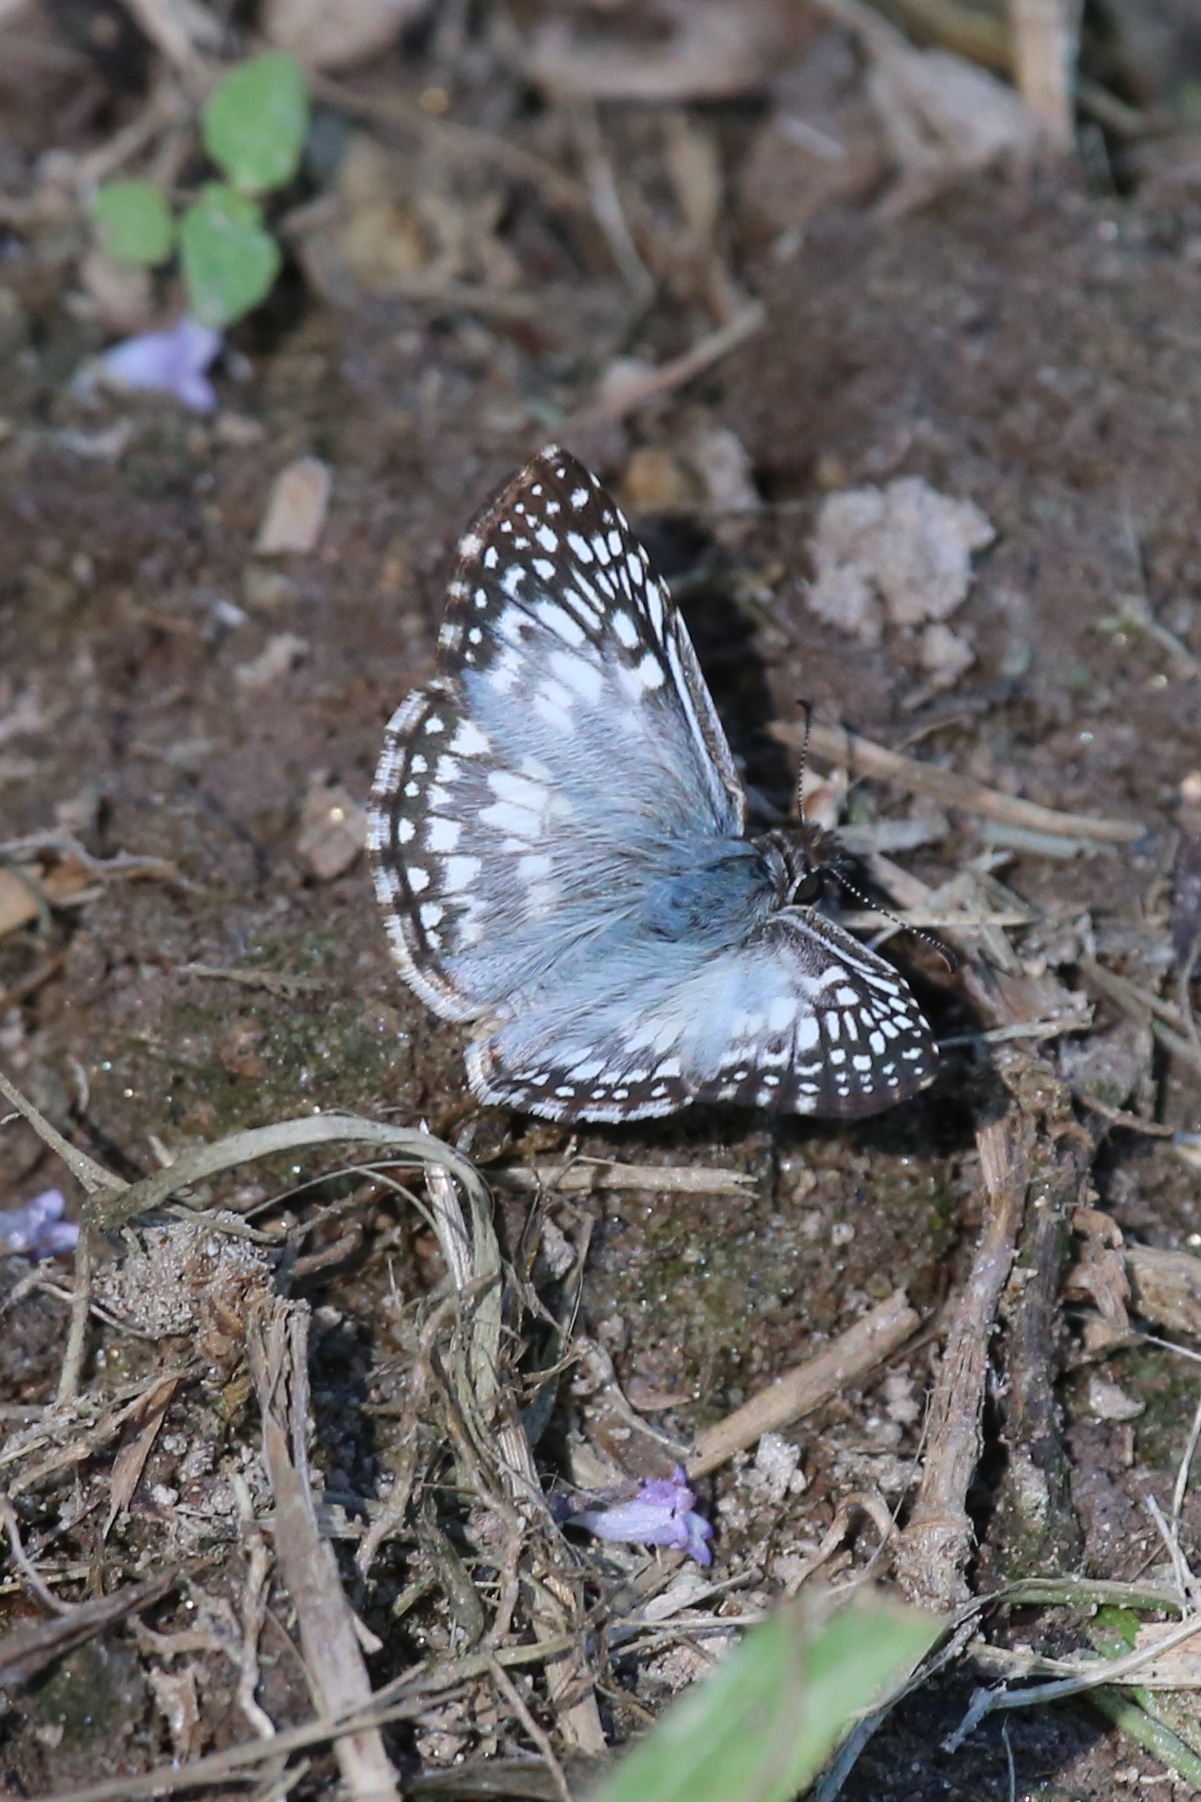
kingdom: Animalia
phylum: Arthropoda
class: Insecta
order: Lepidoptera
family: Hesperiidae
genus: Pyrgus
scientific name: Pyrgus oileus
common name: Tropical checkered-skipper
